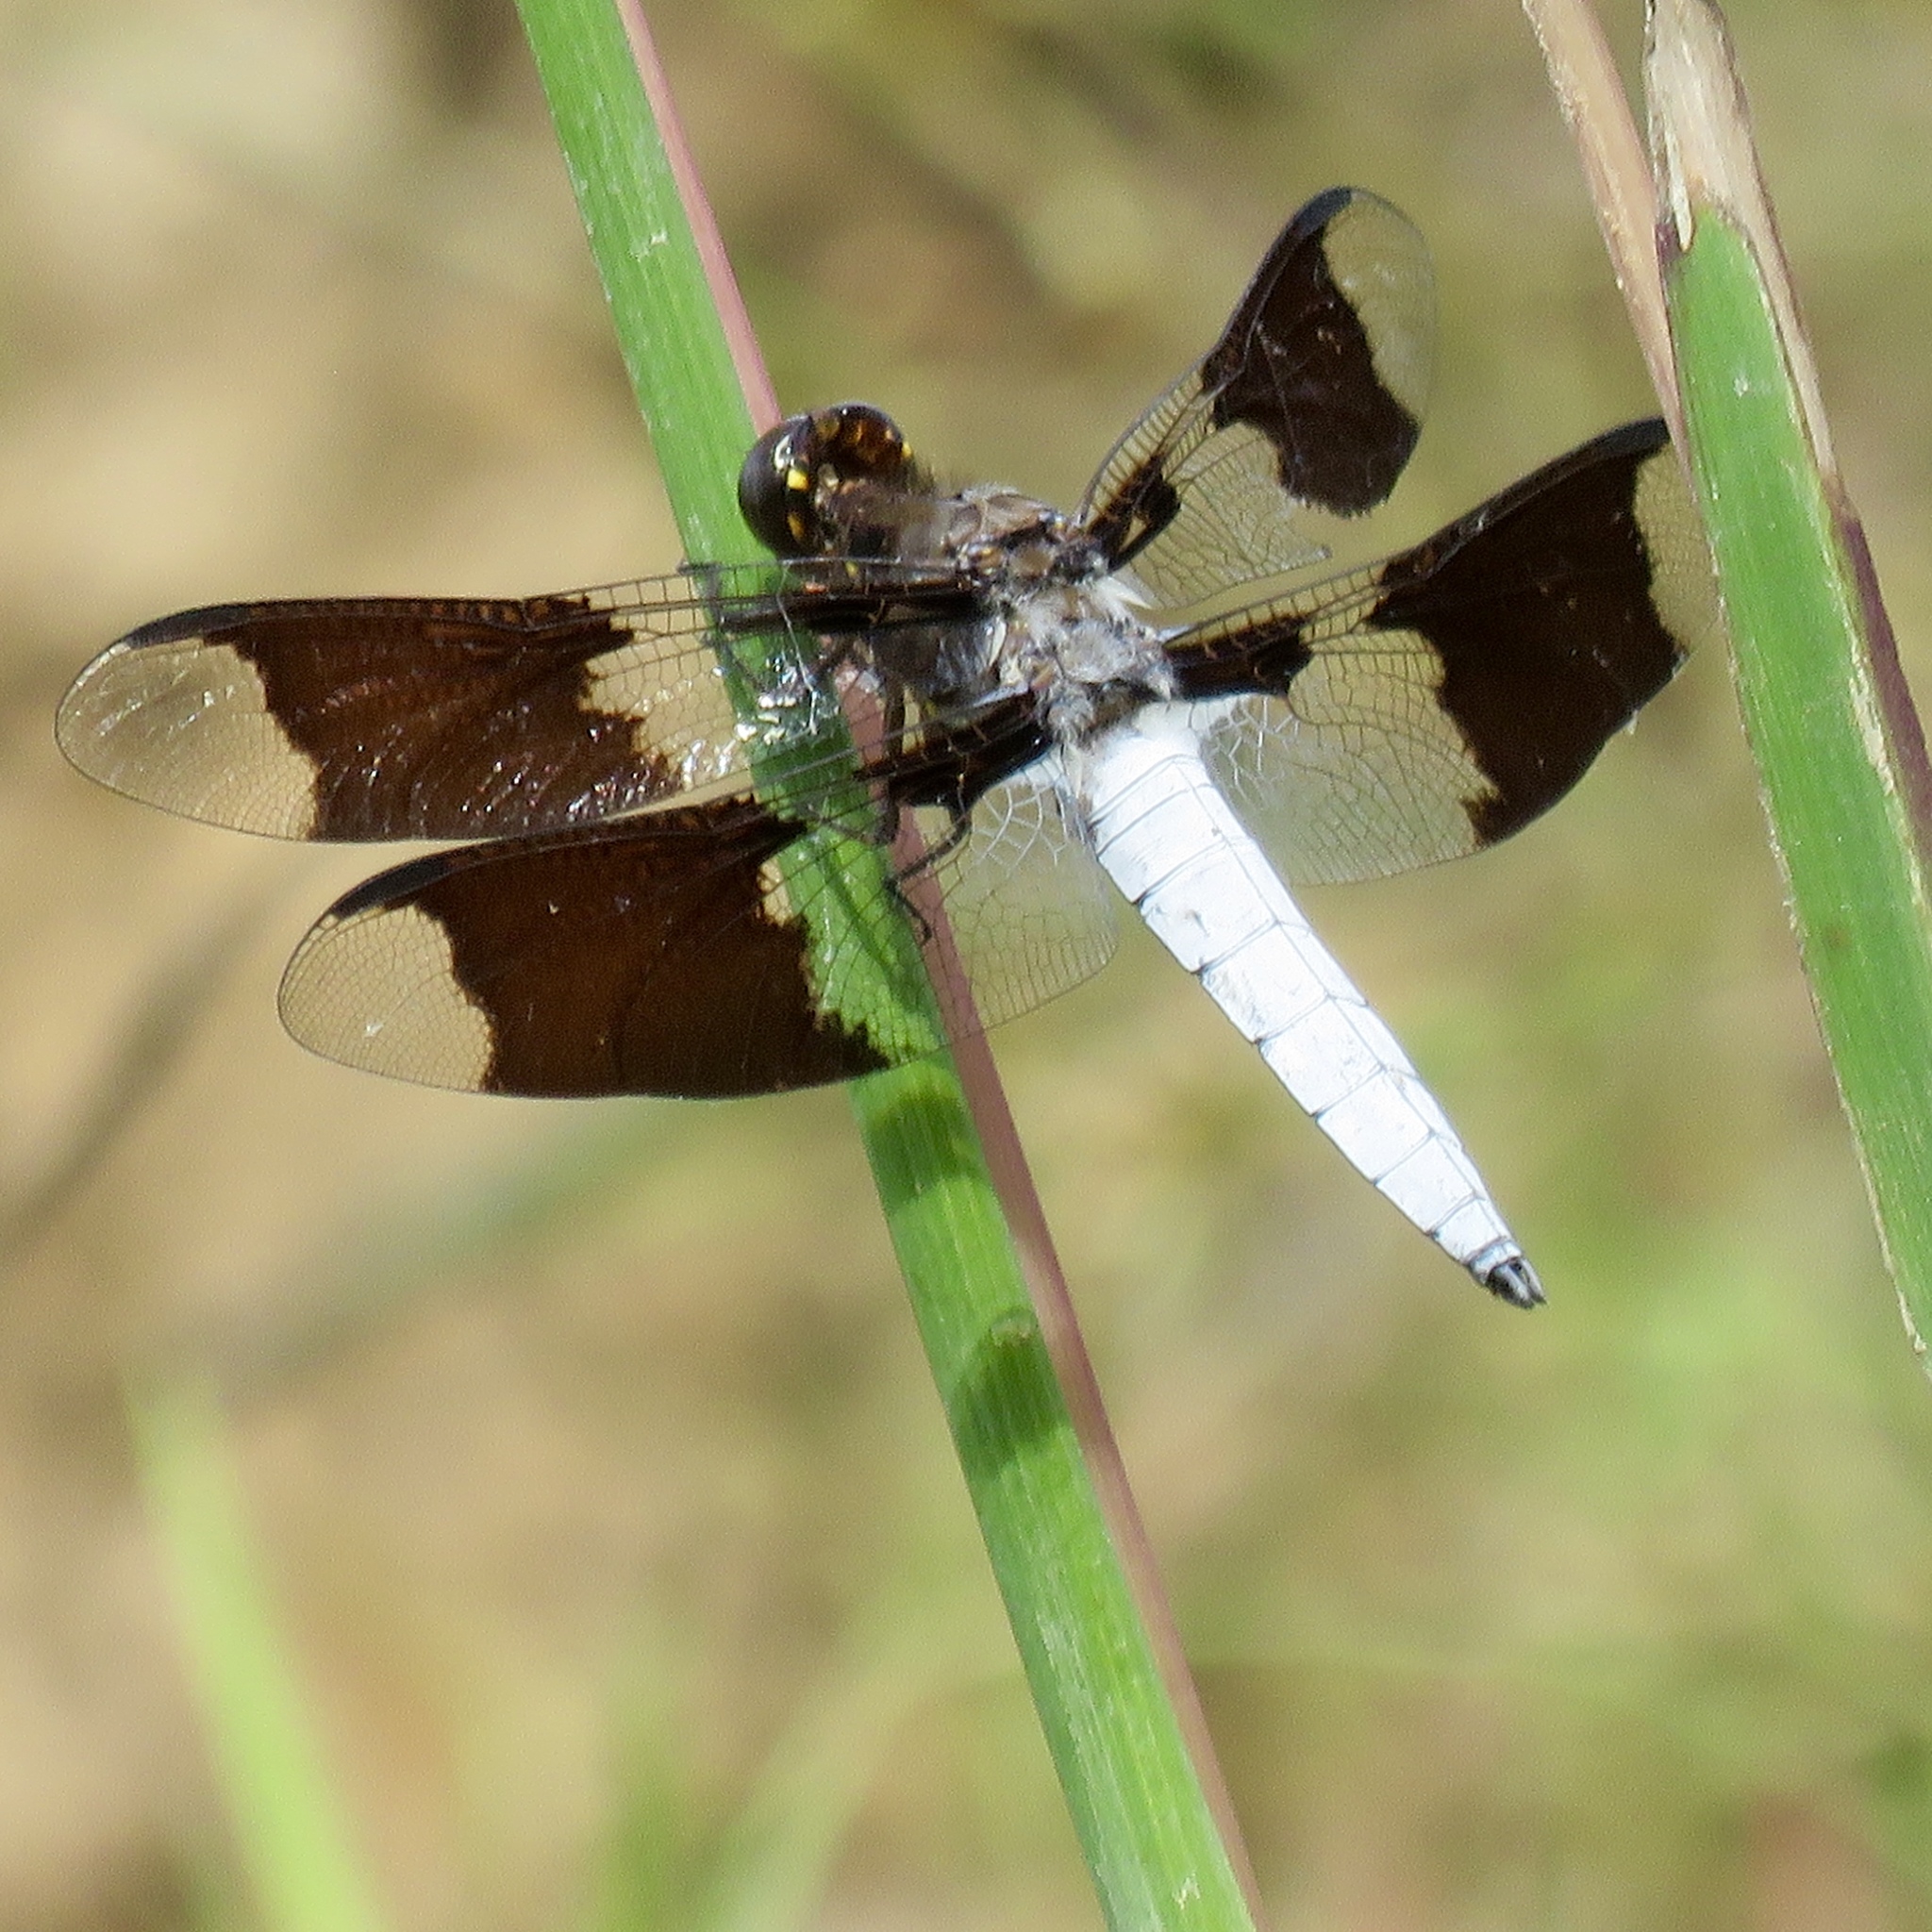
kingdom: Animalia
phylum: Arthropoda
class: Insecta
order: Odonata
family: Libellulidae
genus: Plathemis
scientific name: Plathemis lydia
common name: Common whitetail
